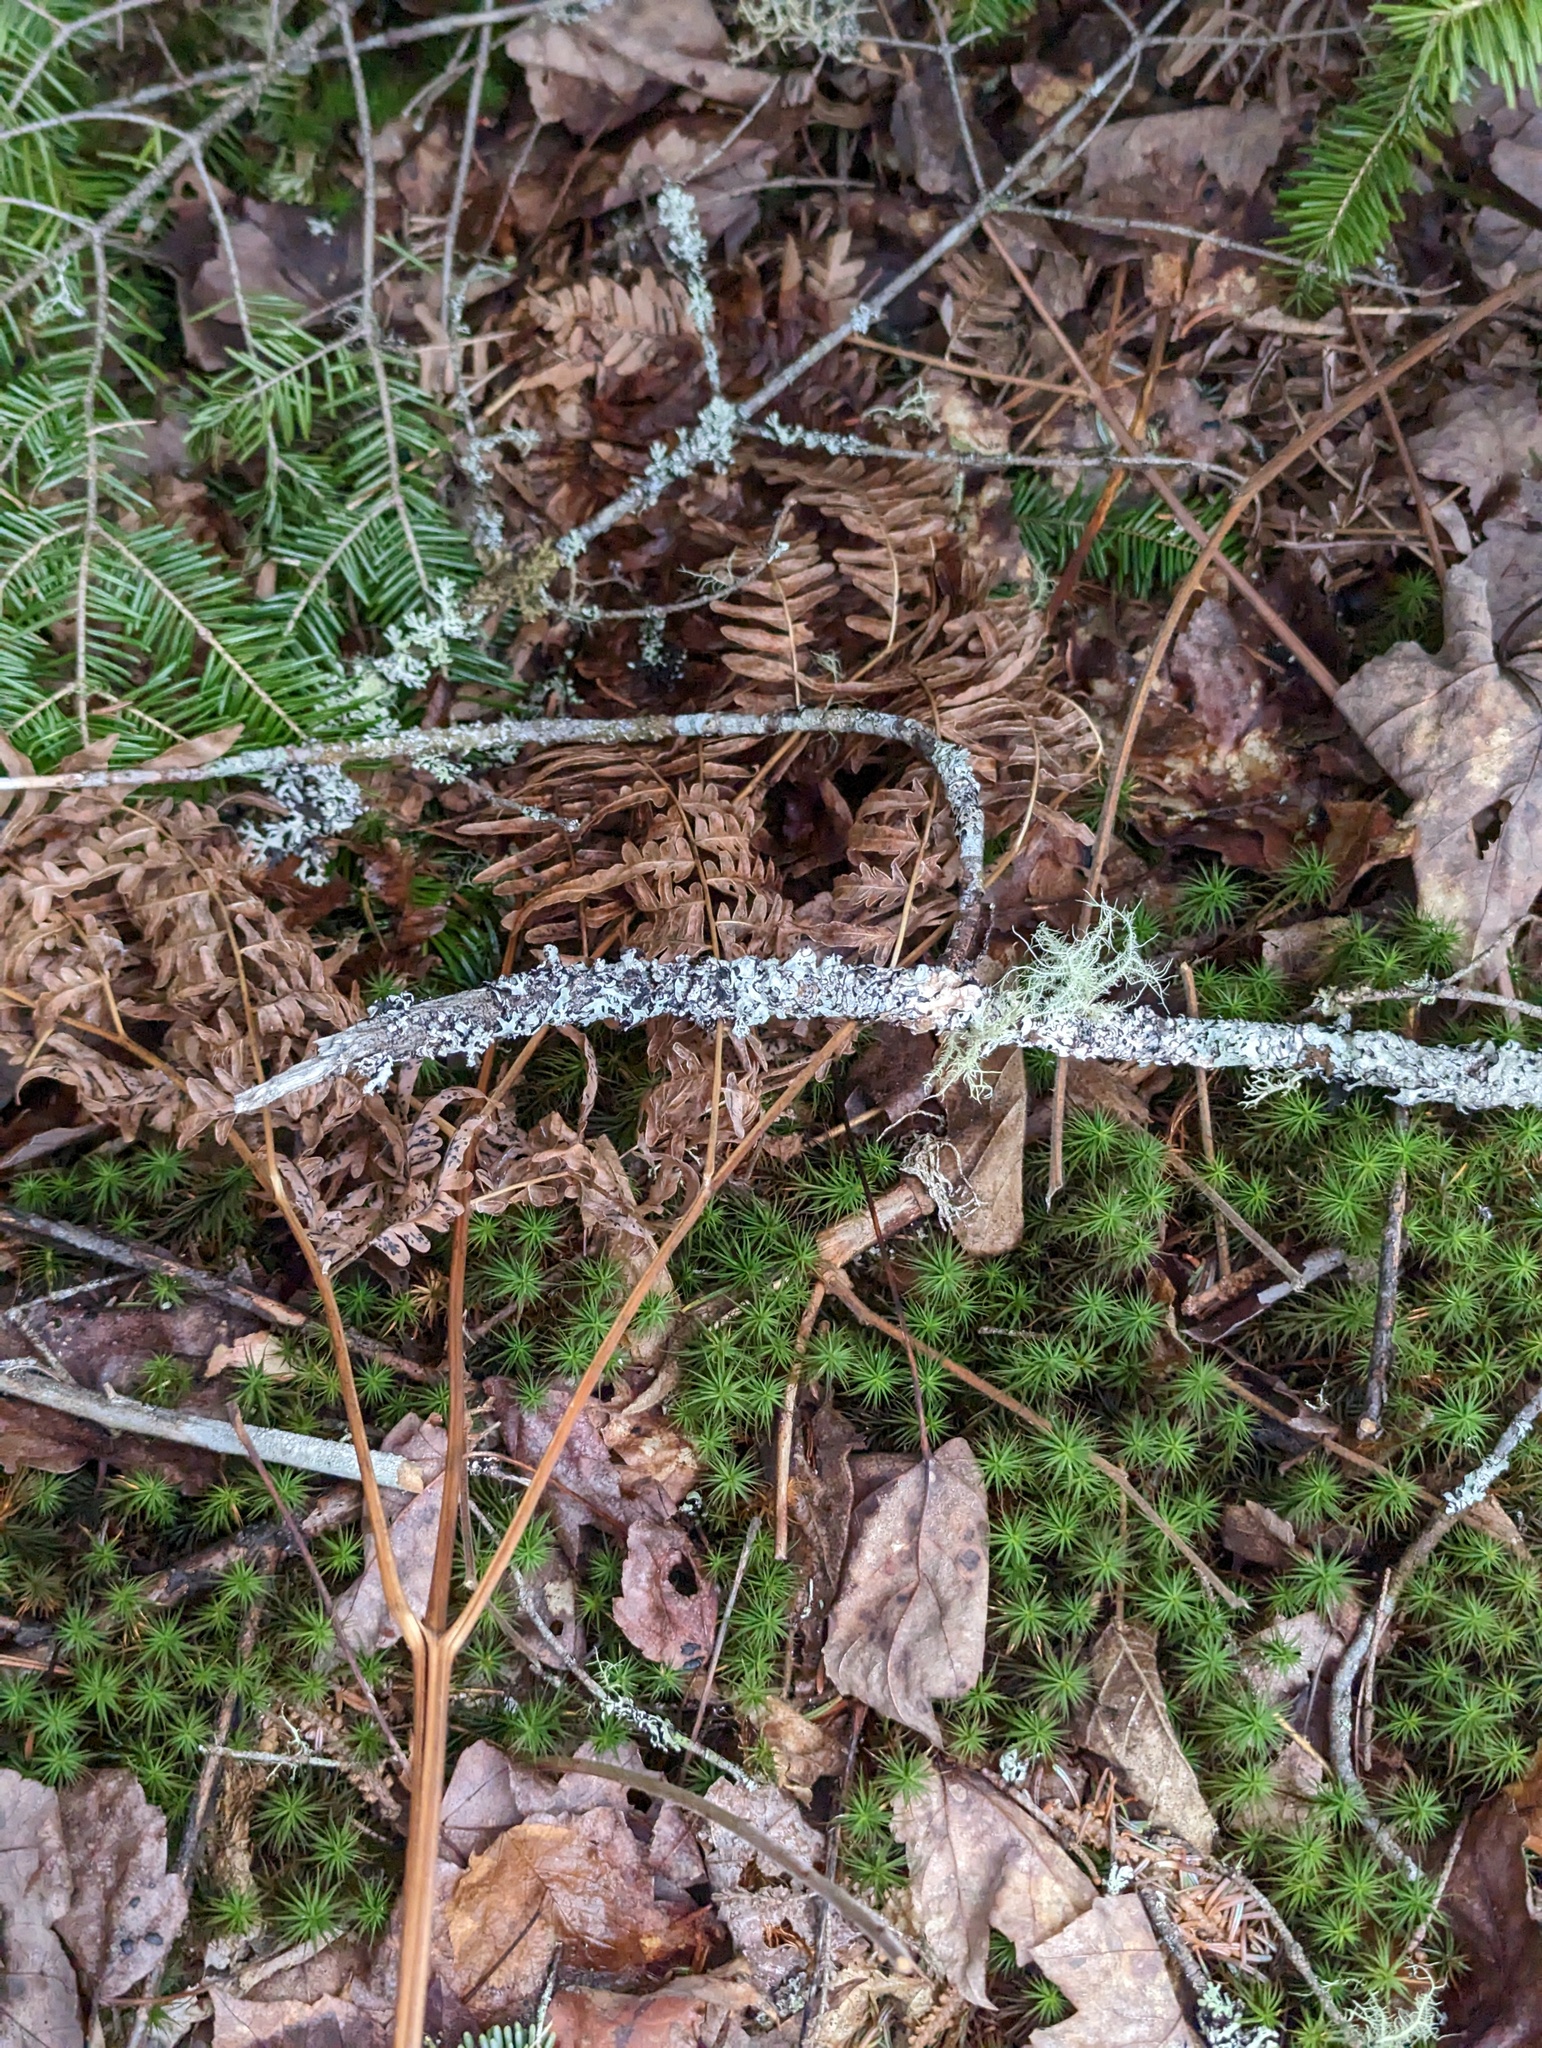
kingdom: Plantae
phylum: Tracheophyta
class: Polypodiopsida
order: Polypodiales
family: Dennstaedtiaceae
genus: Pteridium
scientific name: Pteridium aquilinum
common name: Bracken
